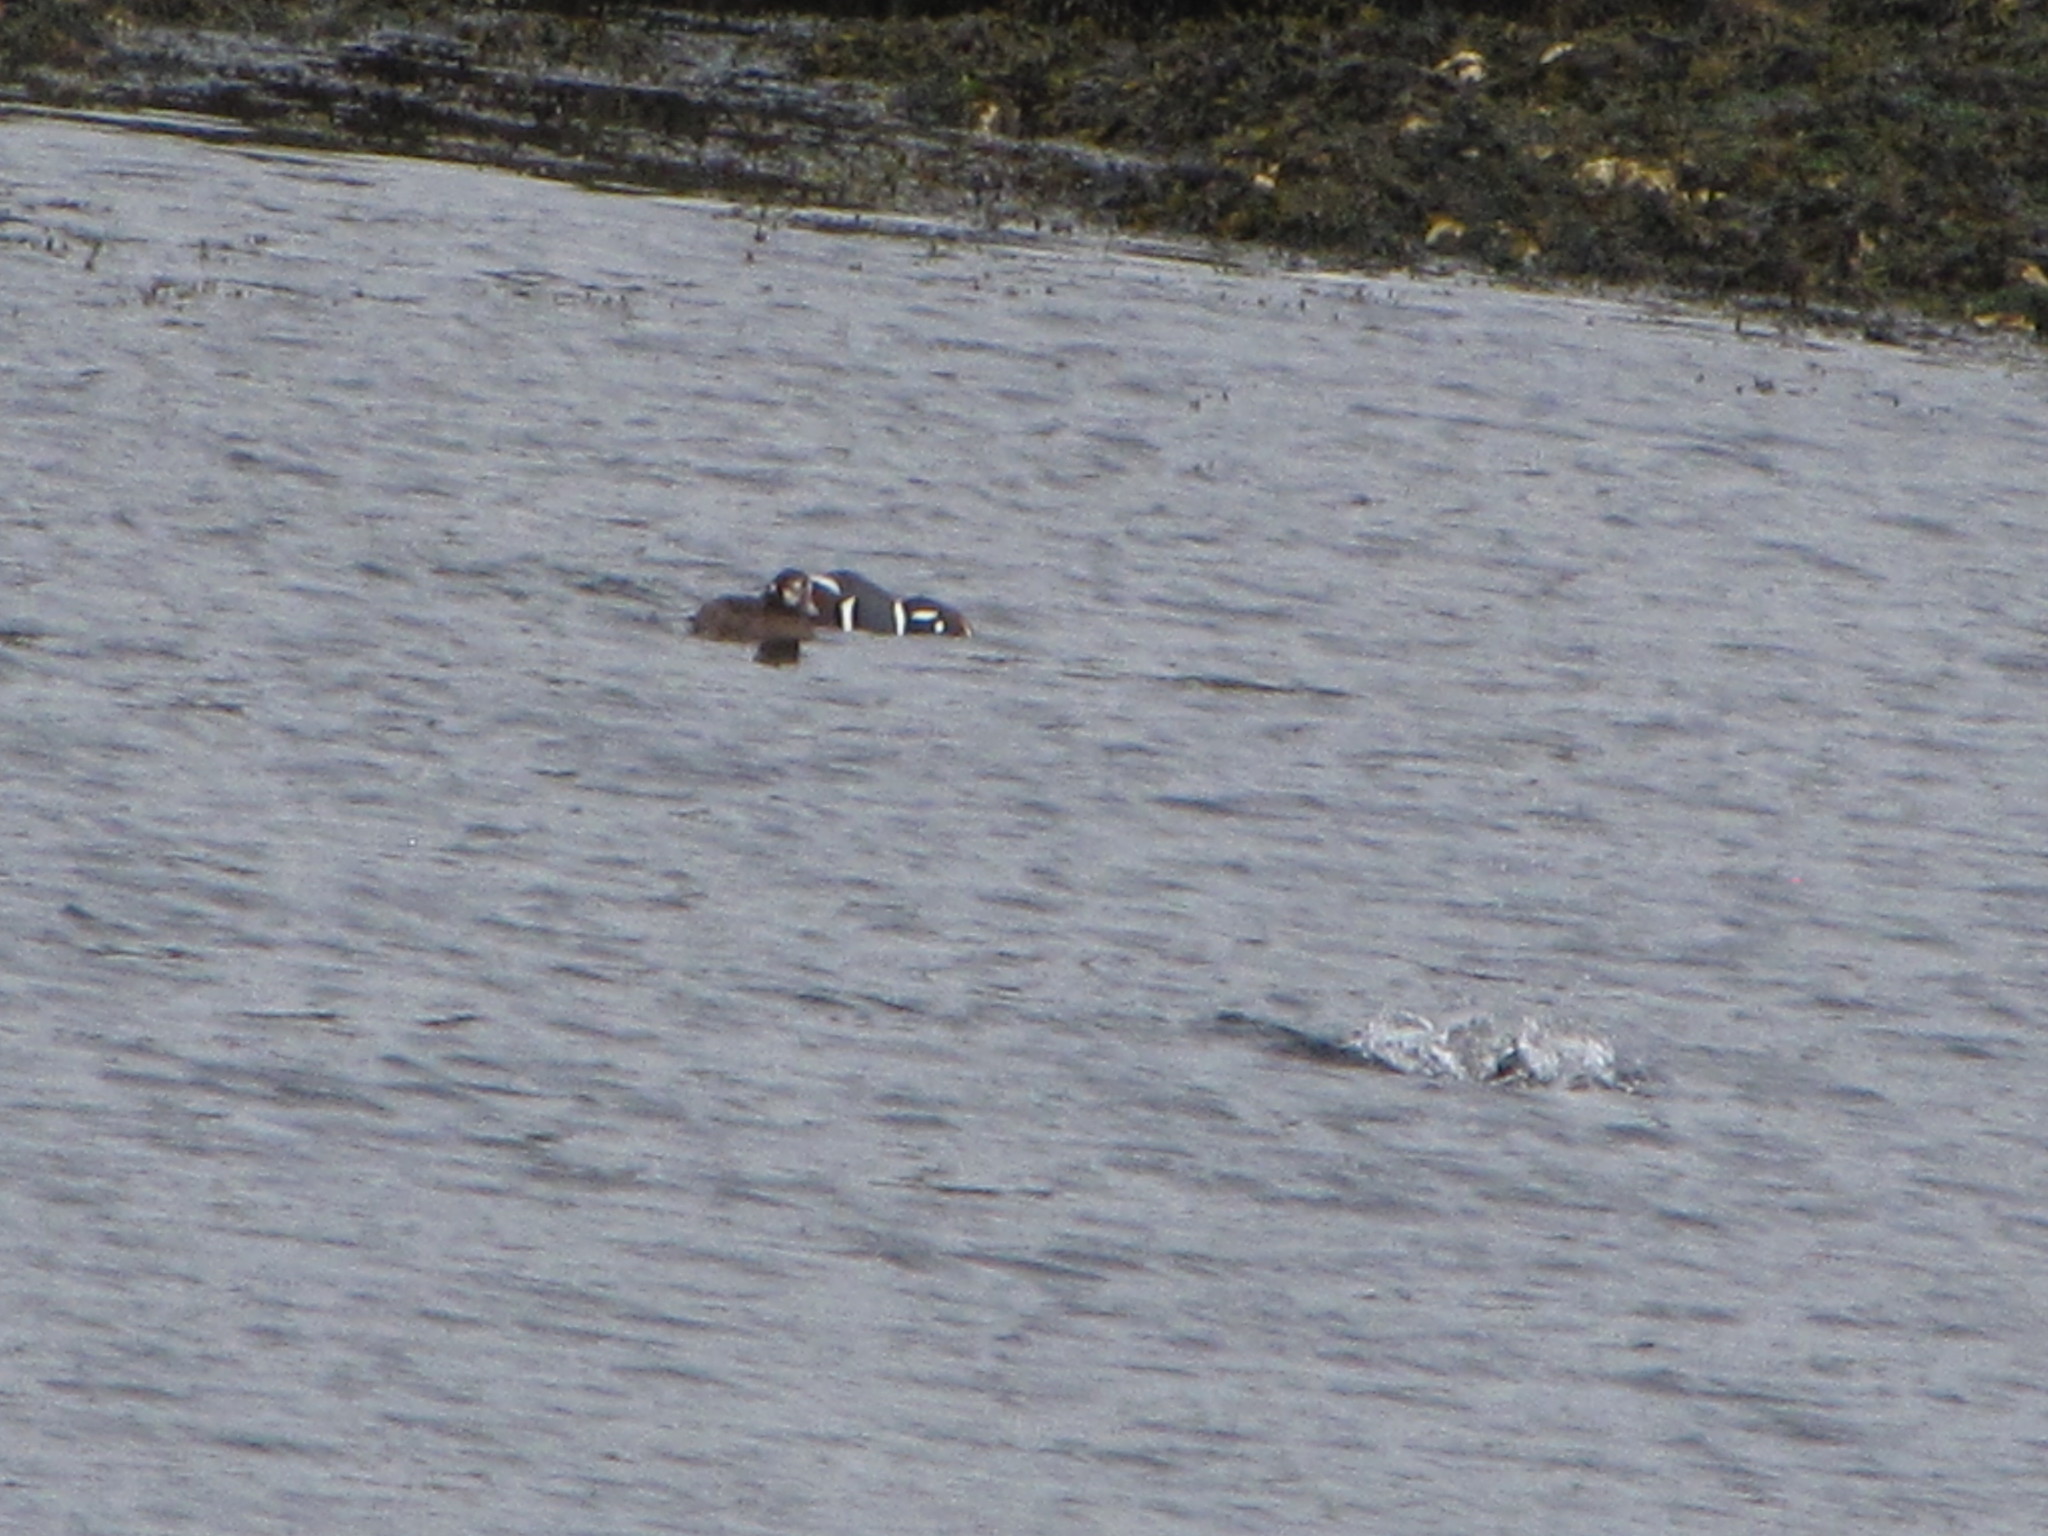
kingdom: Animalia
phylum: Chordata
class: Aves
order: Anseriformes
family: Anatidae
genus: Histrionicus
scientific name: Histrionicus histrionicus
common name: Harlequin duck
